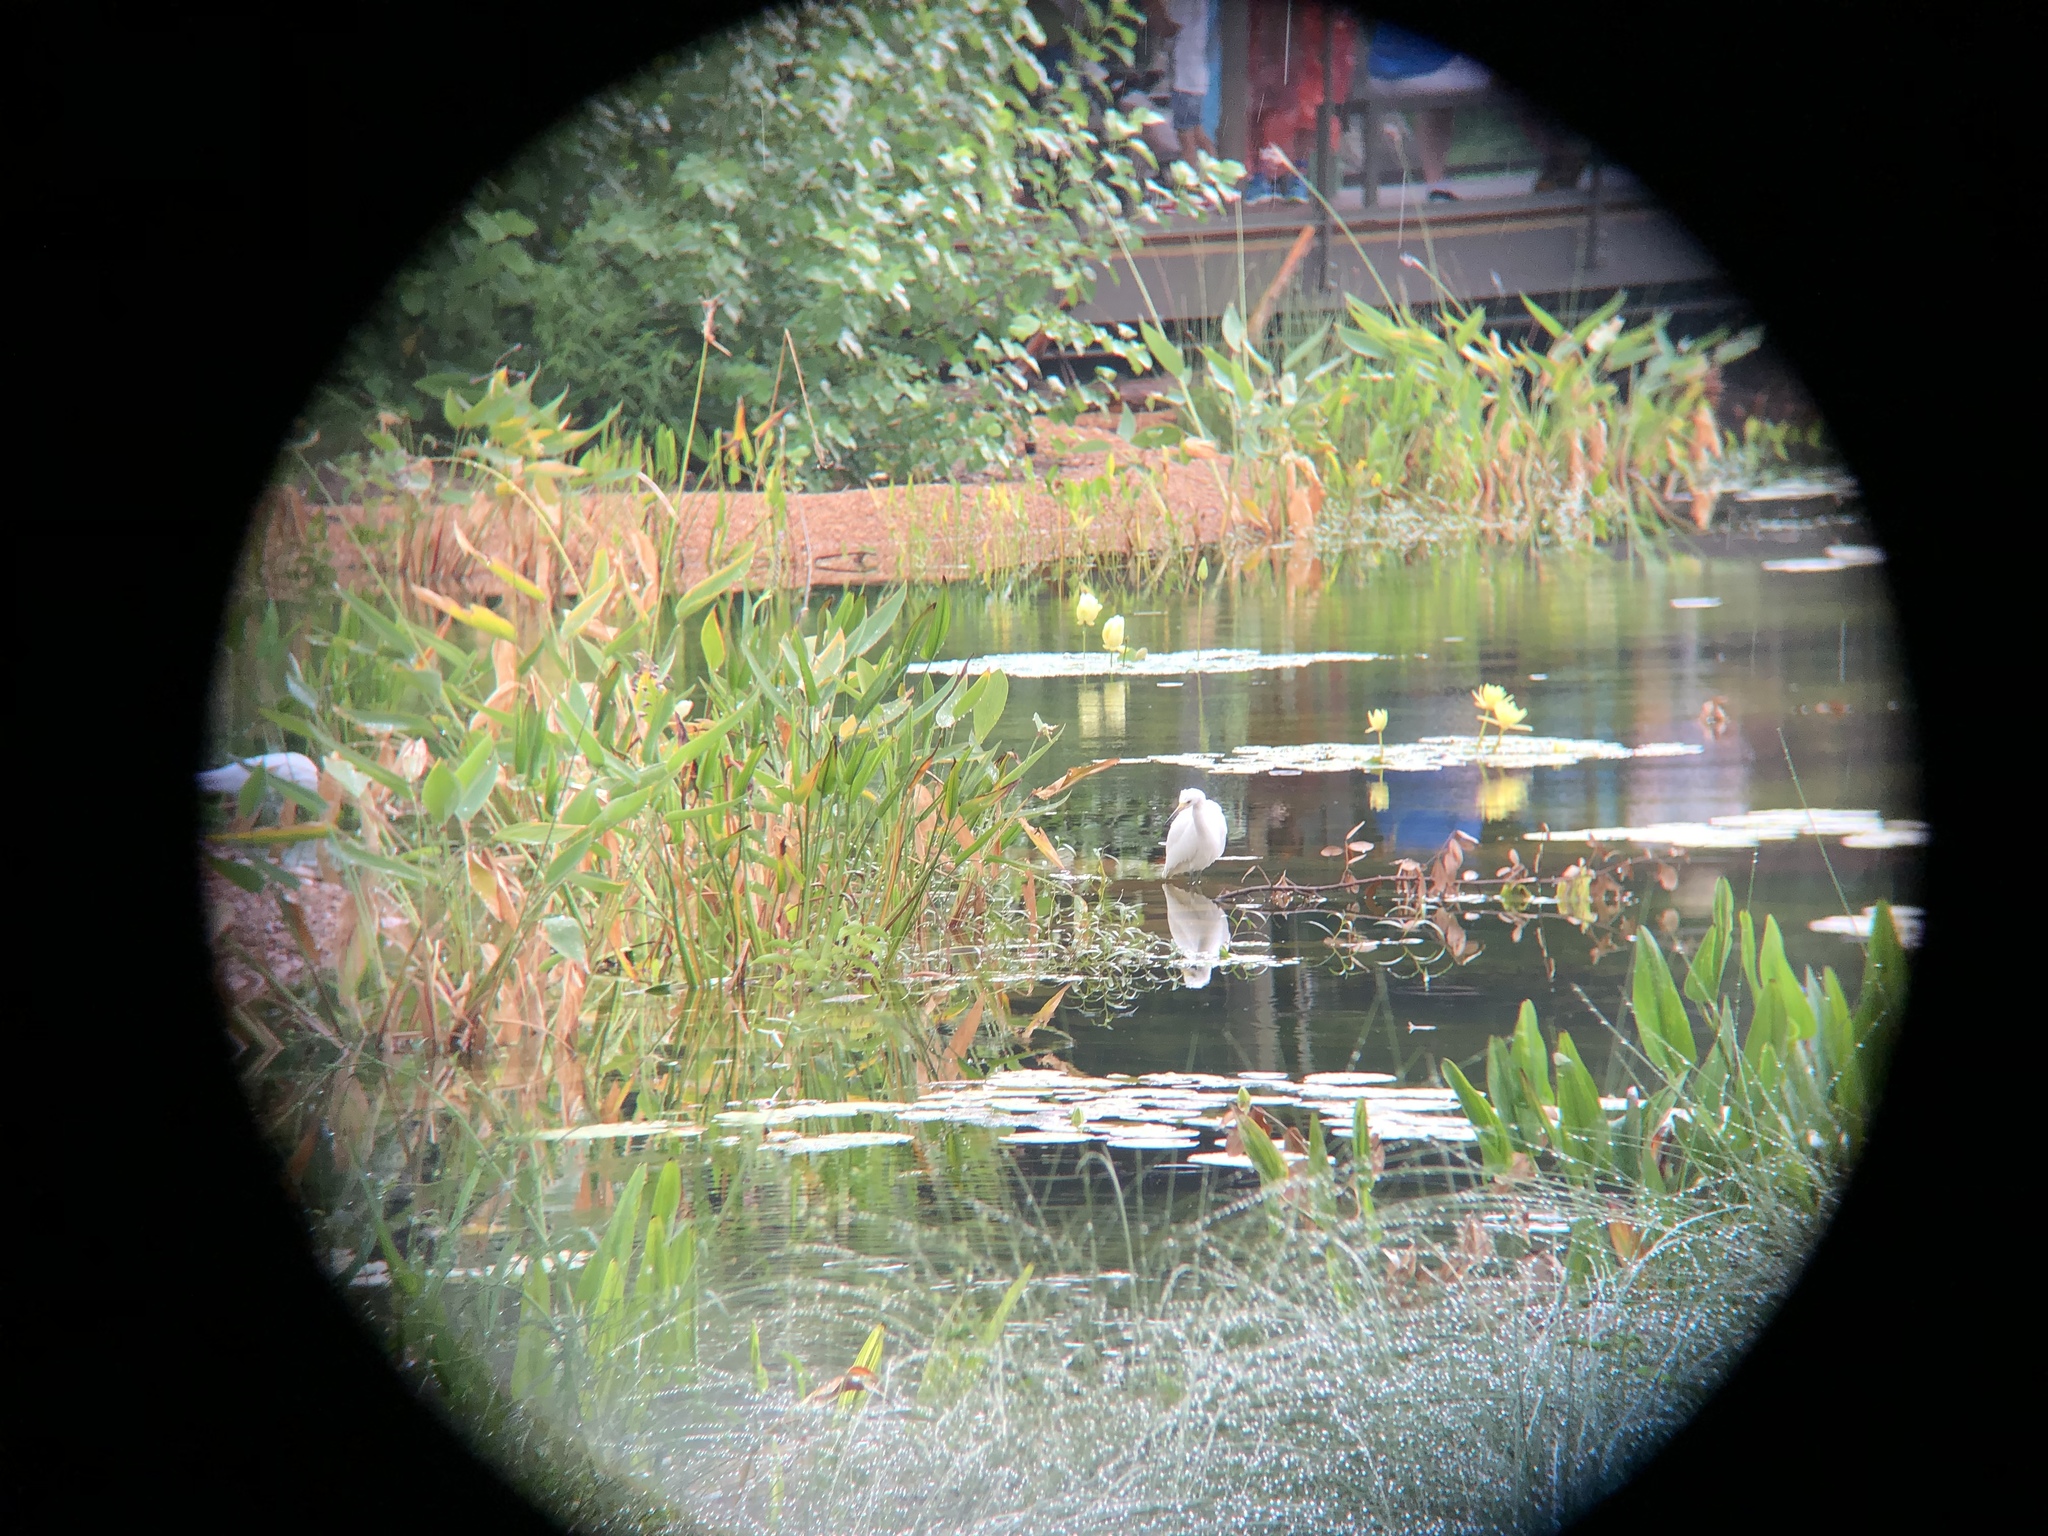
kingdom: Animalia
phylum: Chordata
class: Aves
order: Pelecaniformes
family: Ardeidae
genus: Egretta
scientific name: Egretta thula
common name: Snowy egret
